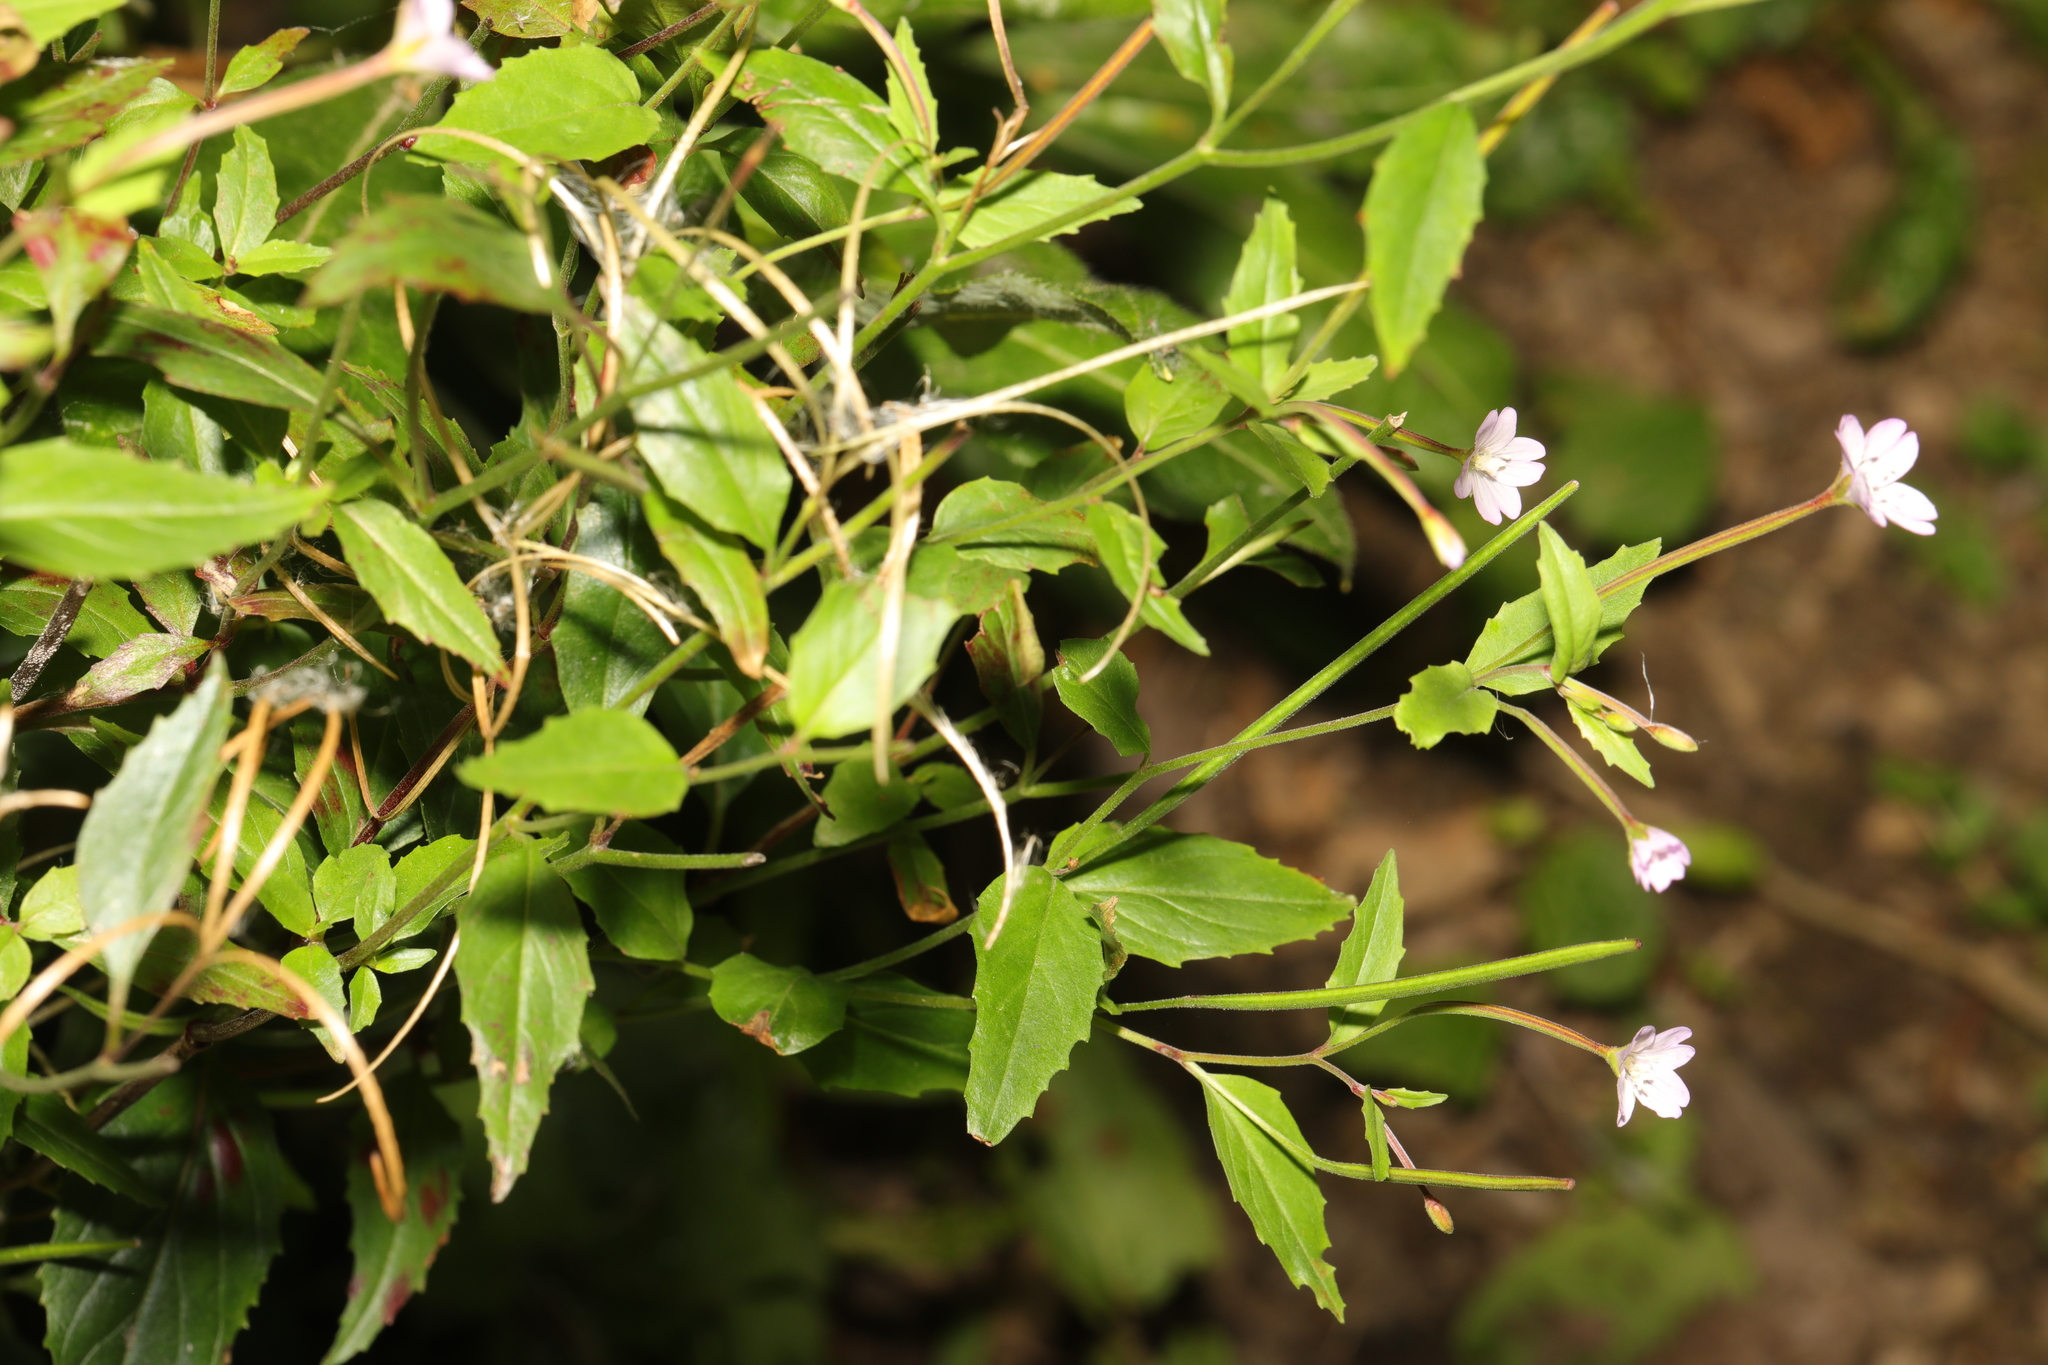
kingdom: Plantae
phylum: Tracheophyta
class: Magnoliopsida
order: Myrtales
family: Onagraceae
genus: Epilobium
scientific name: Epilobium montanum
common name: Broad-leaved willowherb
